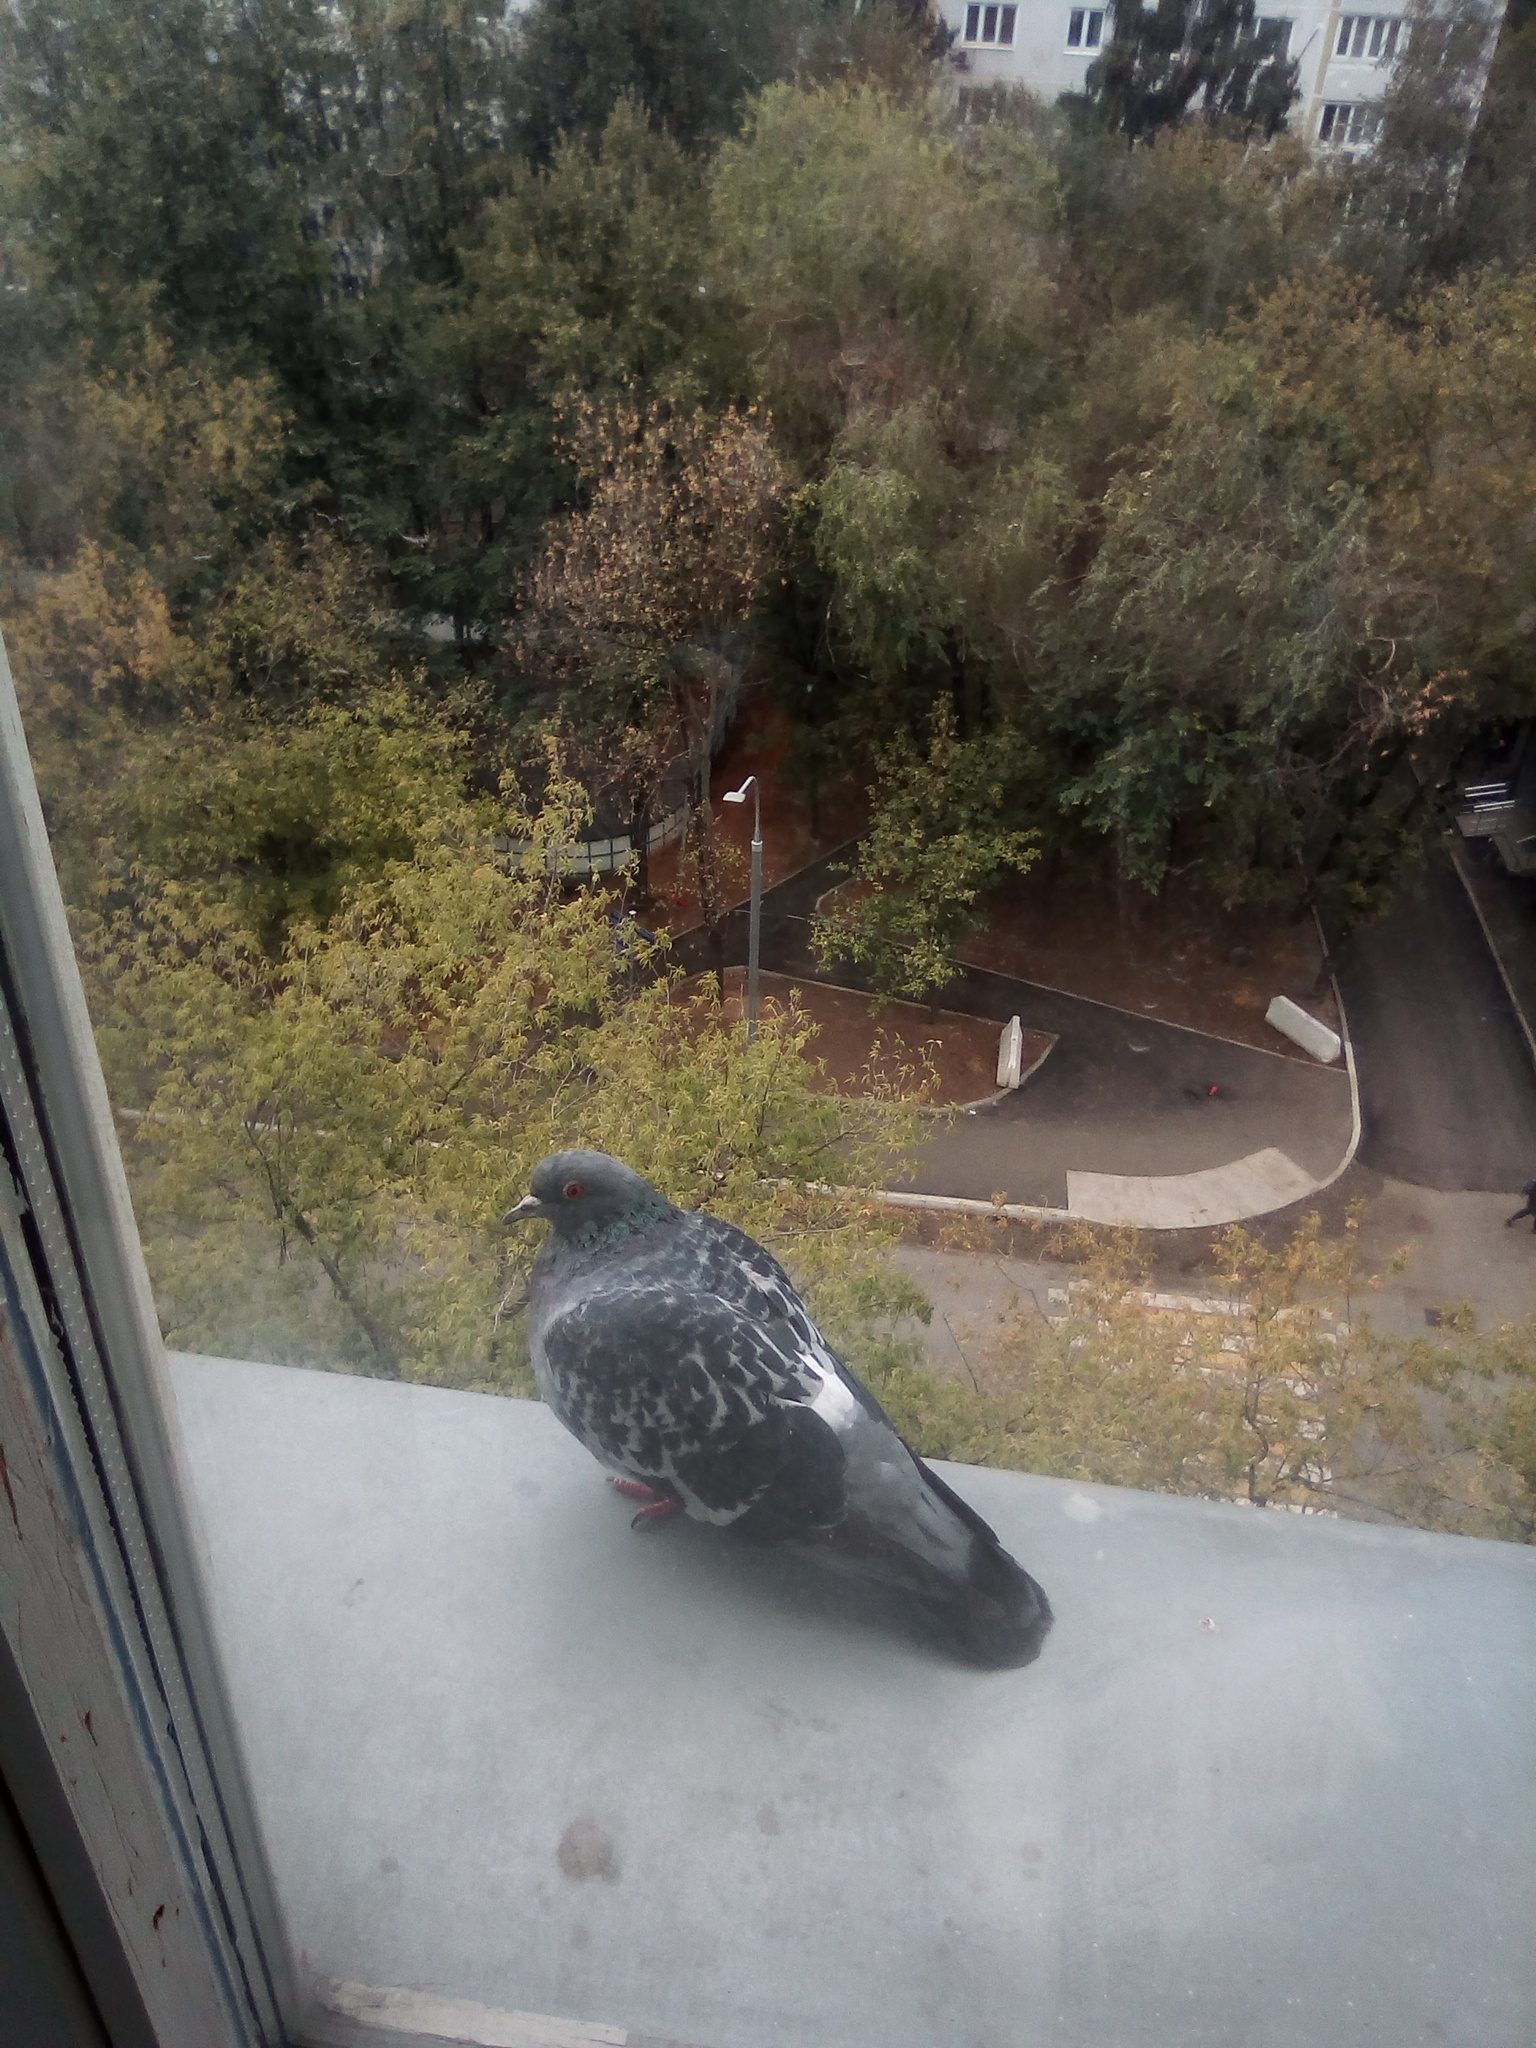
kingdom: Animalia
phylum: Chordata
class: Aves
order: Columbiformes
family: Columbidae
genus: Columba
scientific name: Columba livia
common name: Rock pigeon
